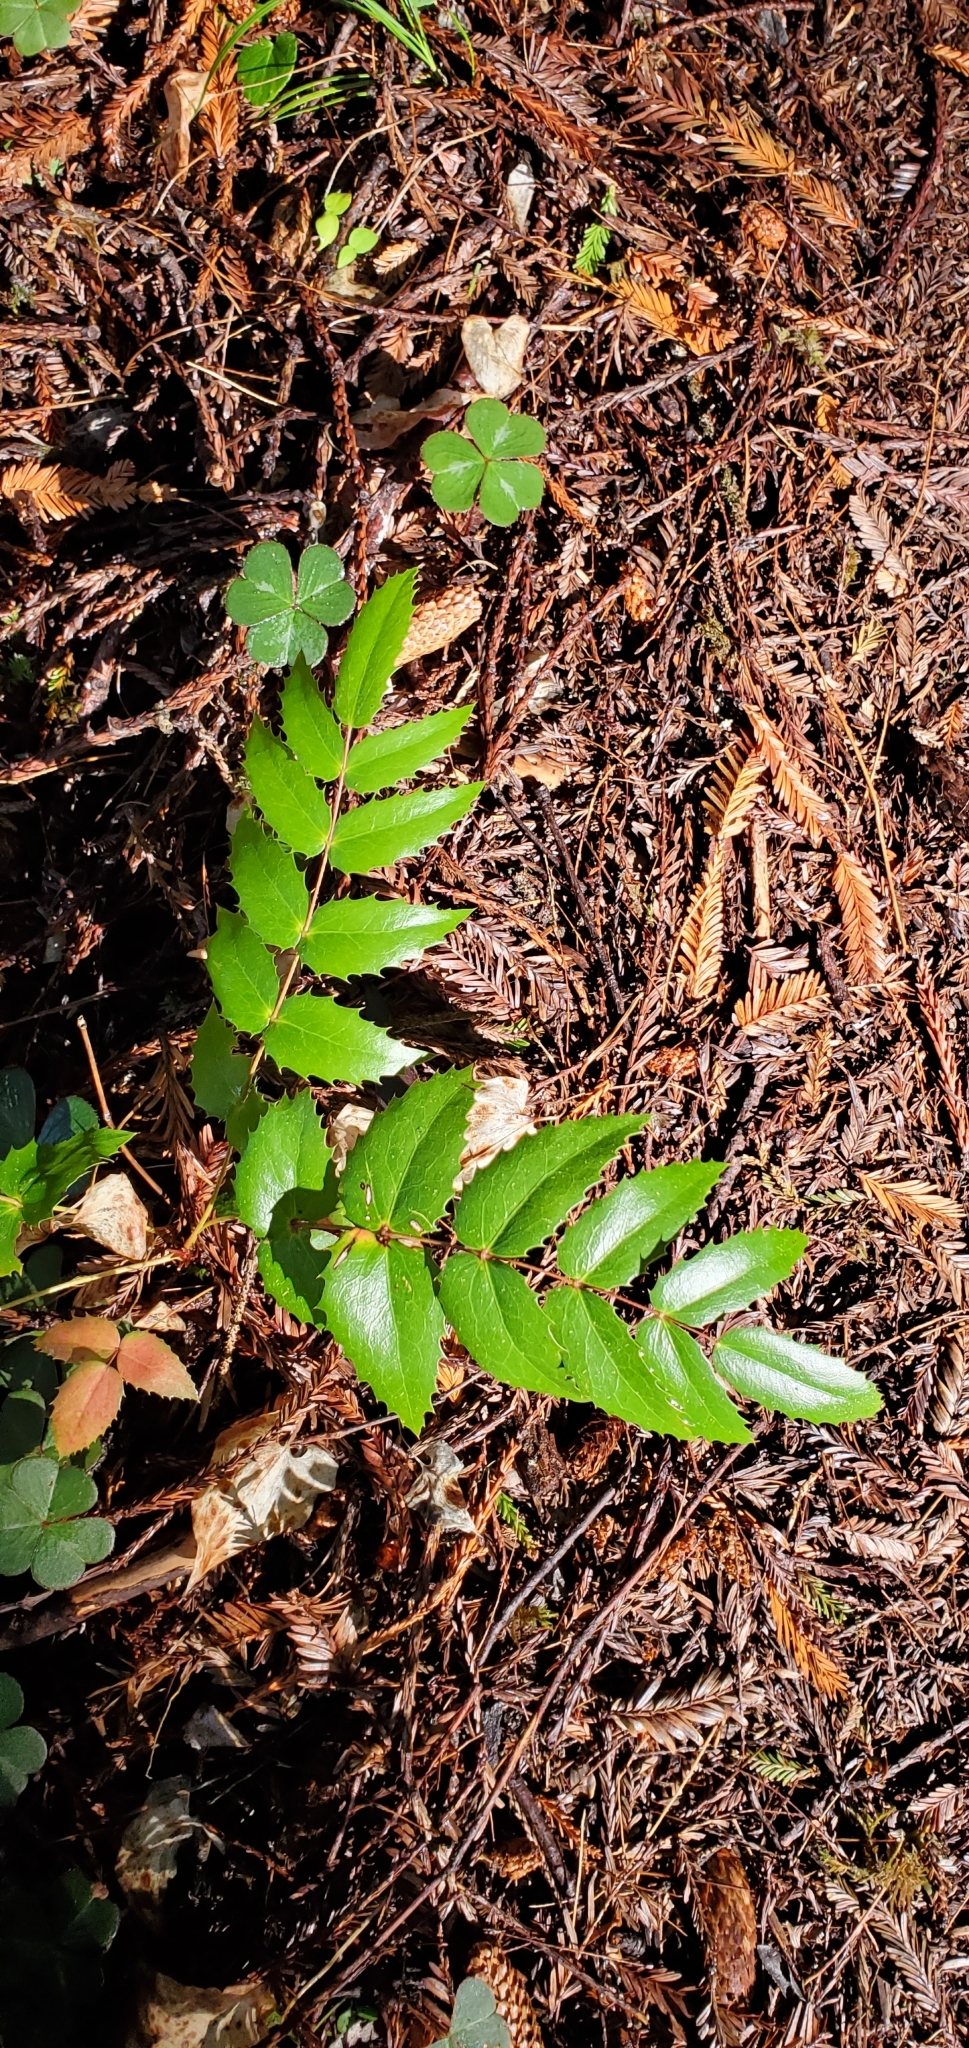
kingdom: Plantae
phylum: Tracheophyta
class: Magnoliopsida
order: Ranunculales
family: Berberidaceae
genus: Mahonia
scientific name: Mahonia nervosa
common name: Cascade oregon-grape
